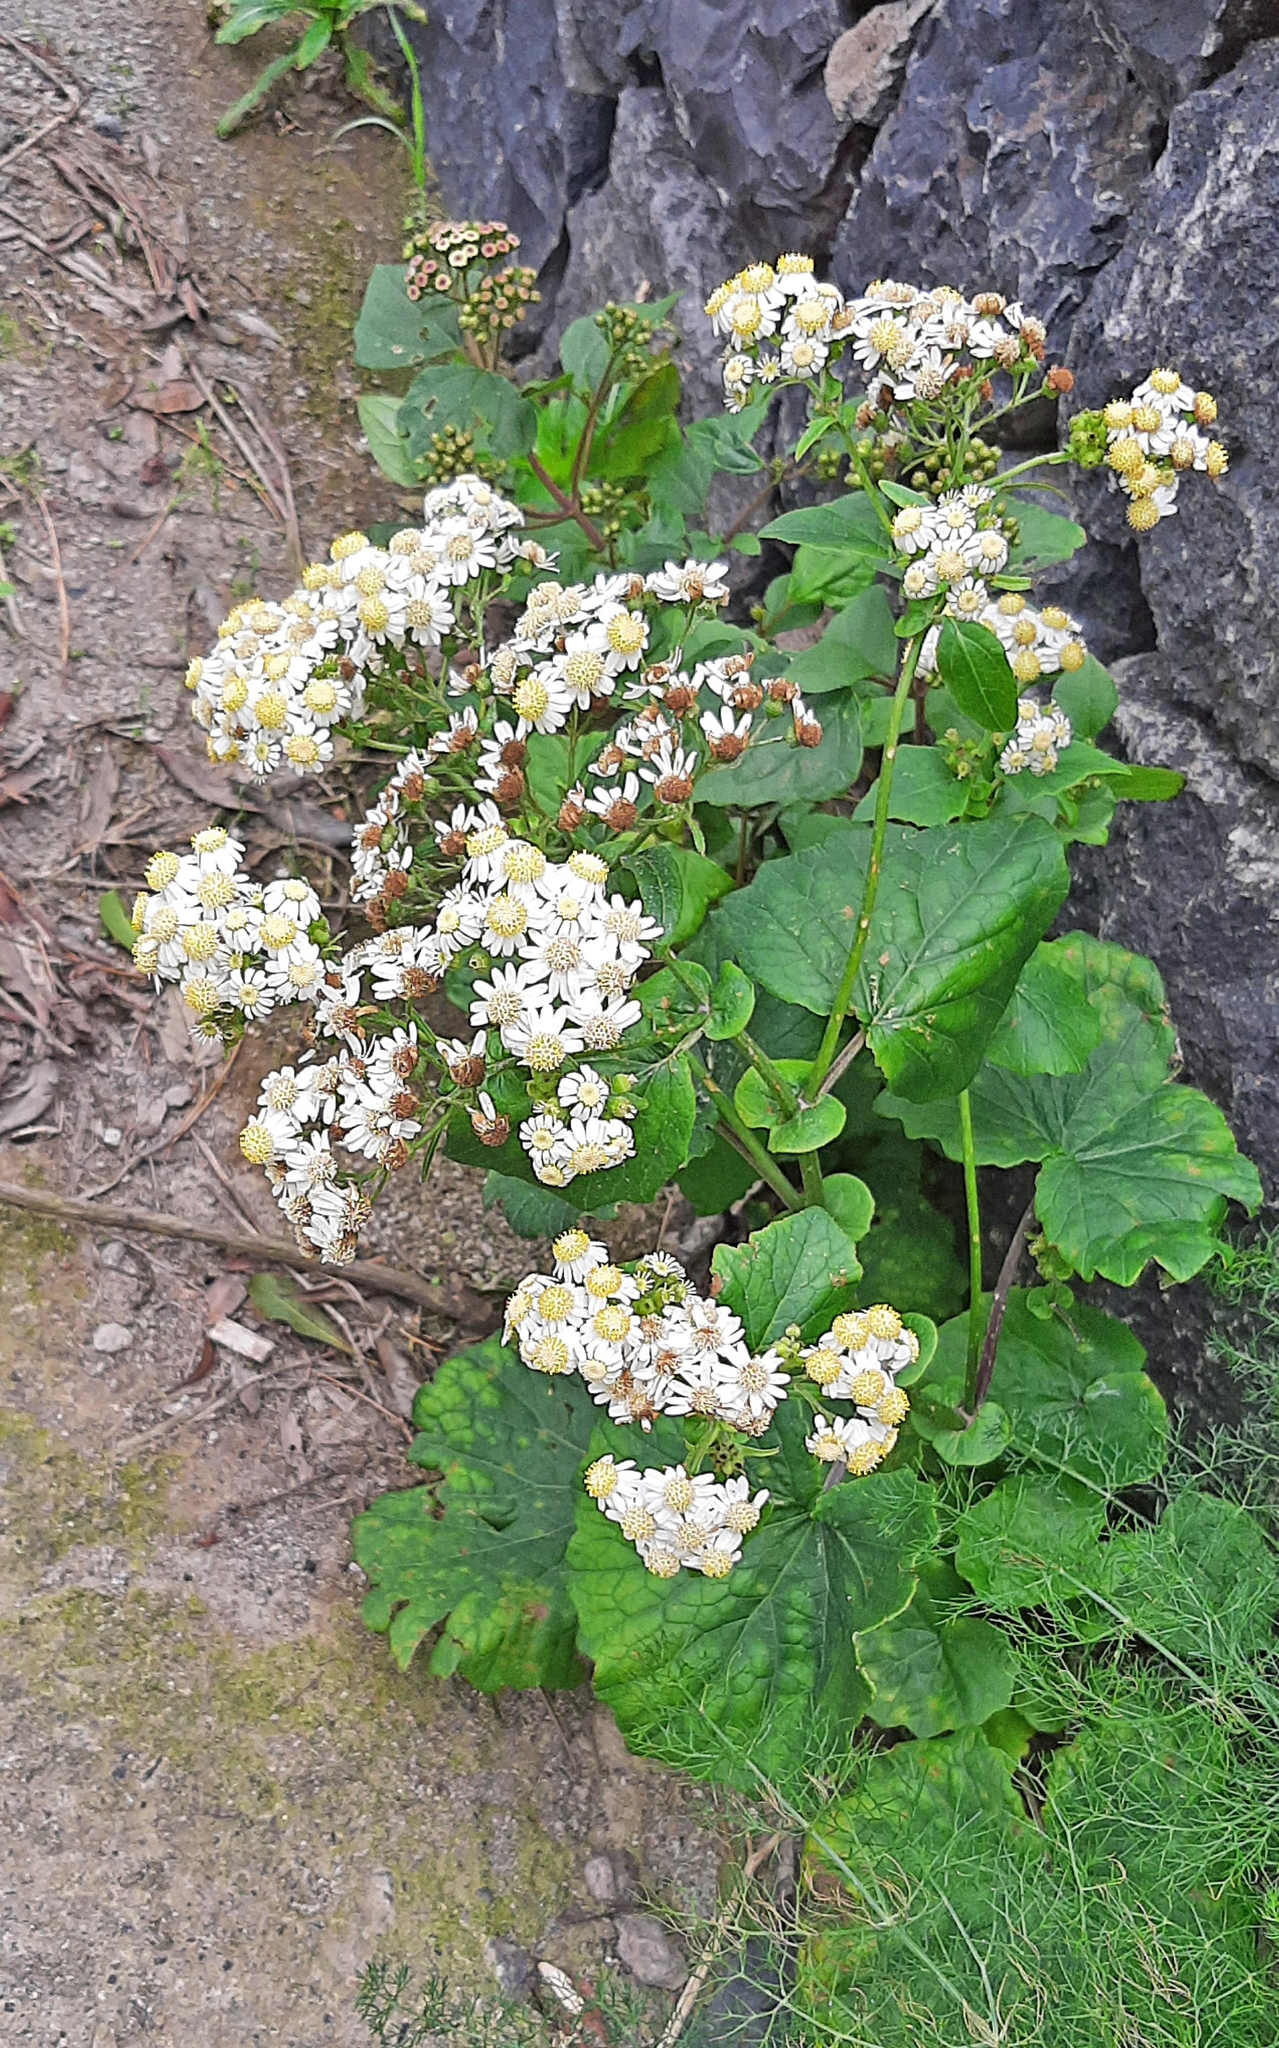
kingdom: Plantae
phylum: Tracheophyta
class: Magnoliopsida
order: Asterales
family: Asteraceae
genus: Pericallis
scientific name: Pericallis steetzii
